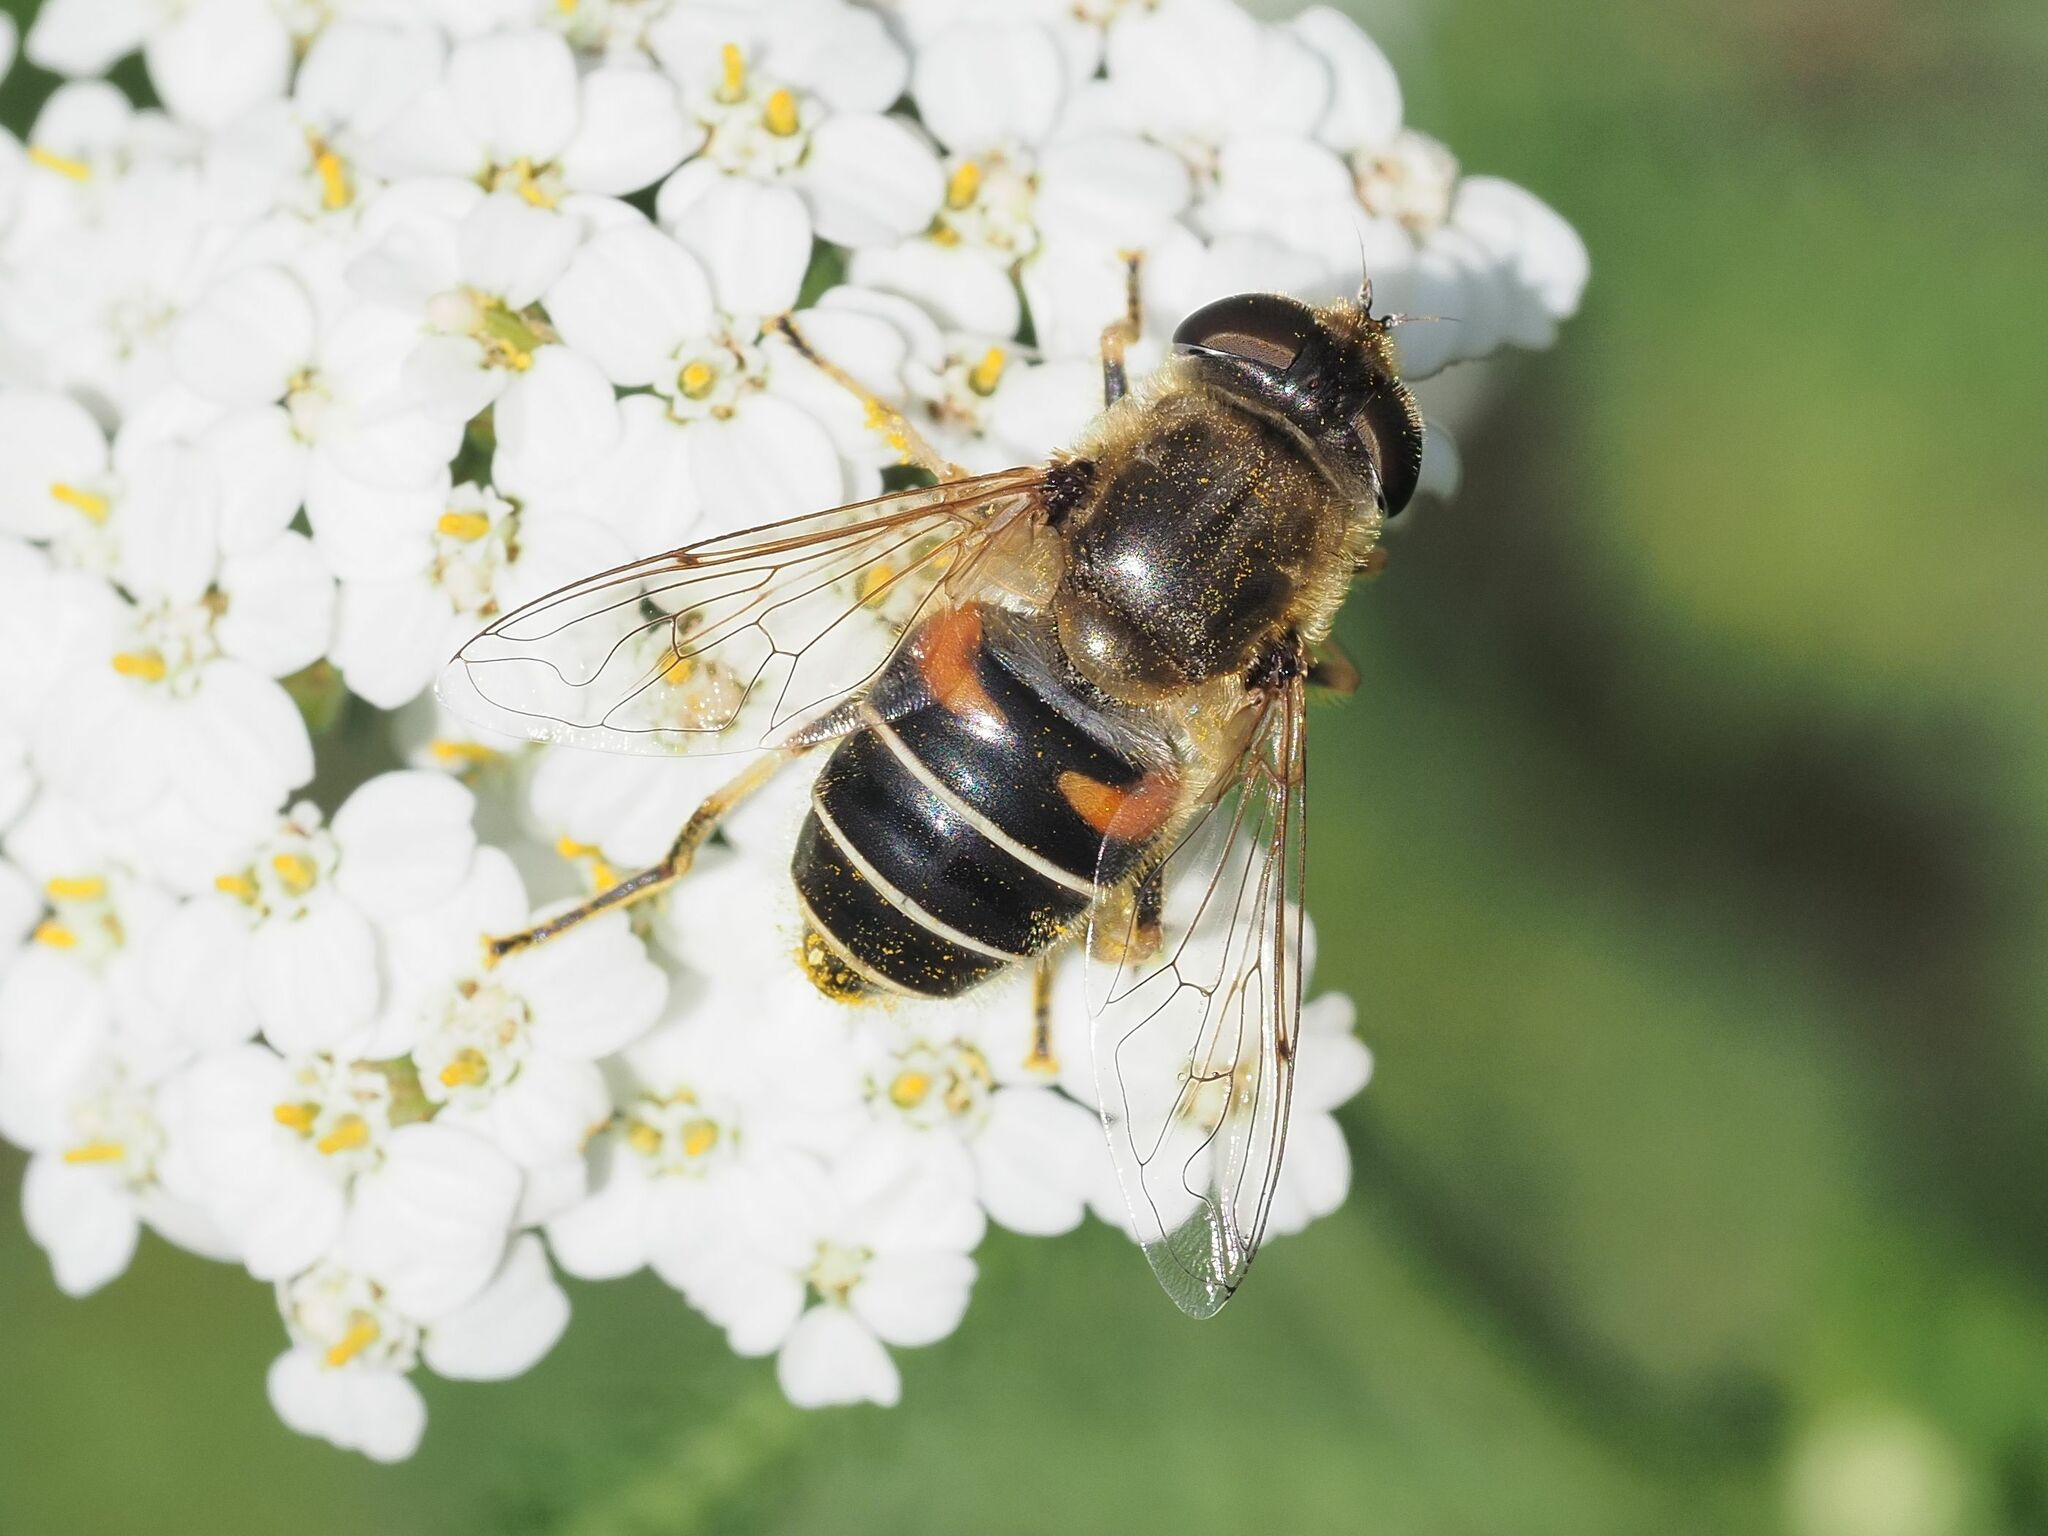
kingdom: Animalia
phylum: Arthropoda
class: Insecta
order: Diptera
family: Syrphidae
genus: Eristalis
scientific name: Eristalis nemorum
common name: Orange-spined drone fly
